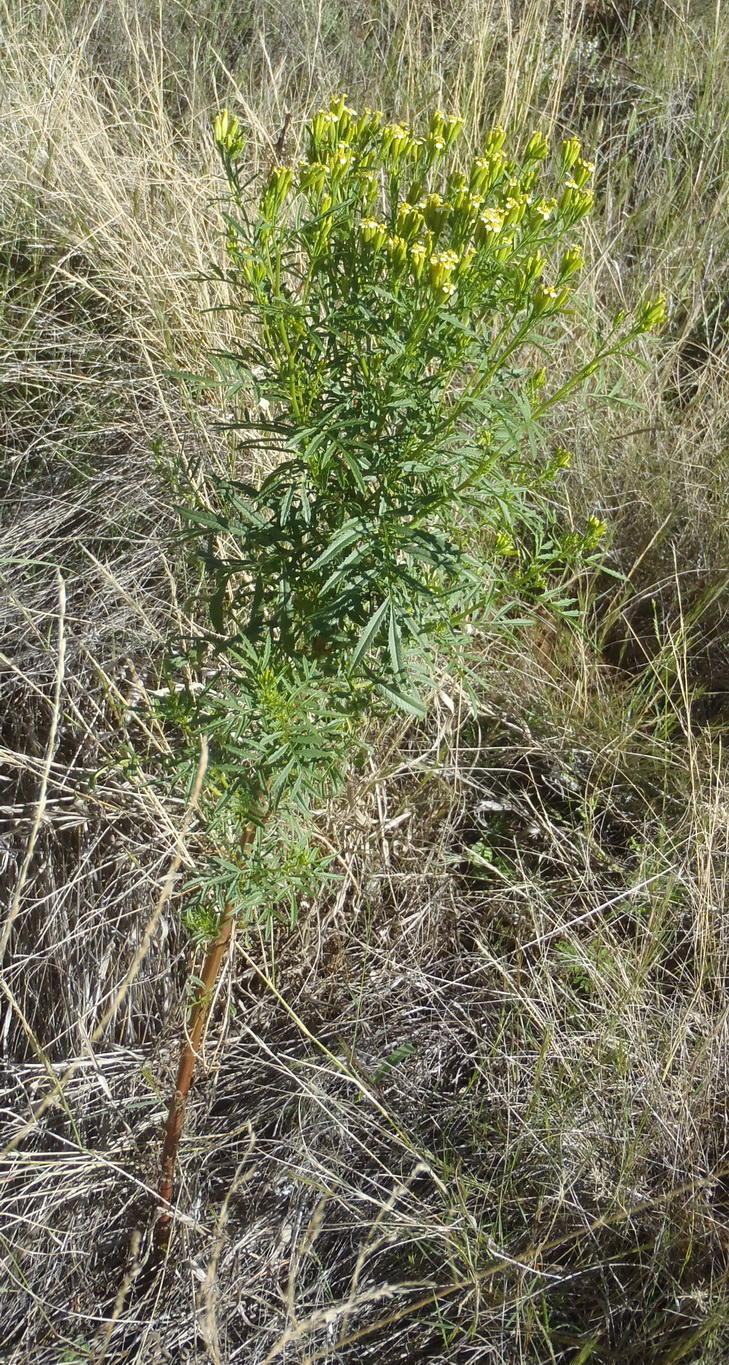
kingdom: Plantae
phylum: Tracheophyta
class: Magnoliopsida
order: Asterales
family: Asteraceae
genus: Tagetes
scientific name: Tagetes minuta
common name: Muster john henry
